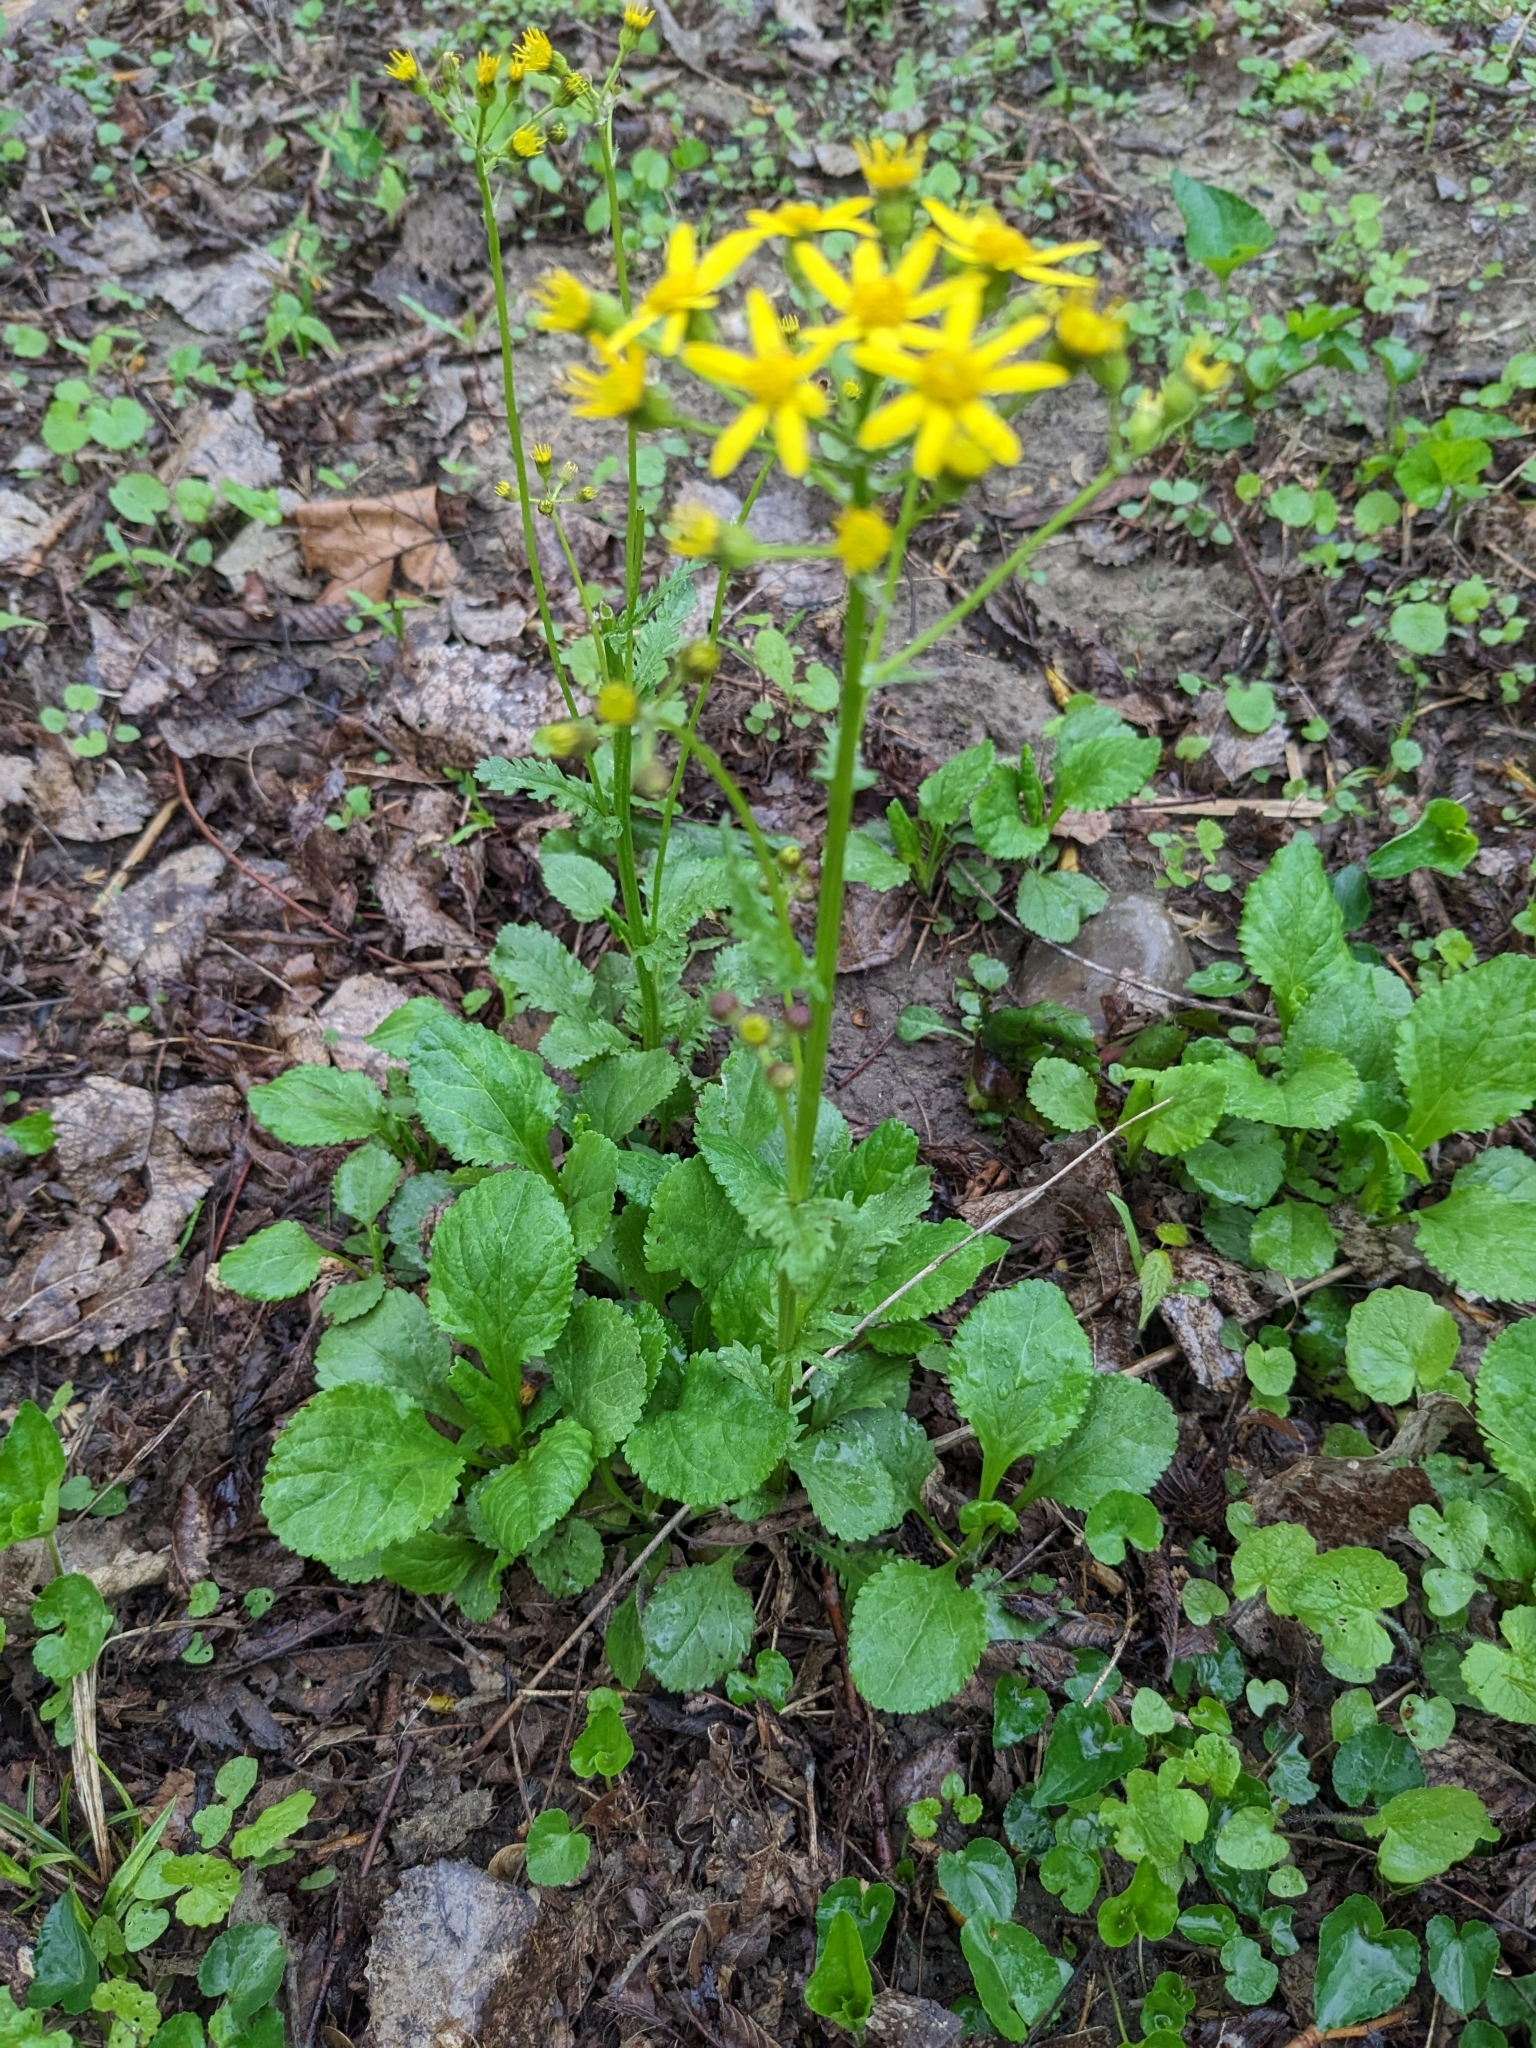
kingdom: Plantae
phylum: Tracheophyta
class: Magnoliopsida
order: Asterales
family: Asteraceae
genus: Packera
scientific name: Packera obovata
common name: Round-leaf ragwort
